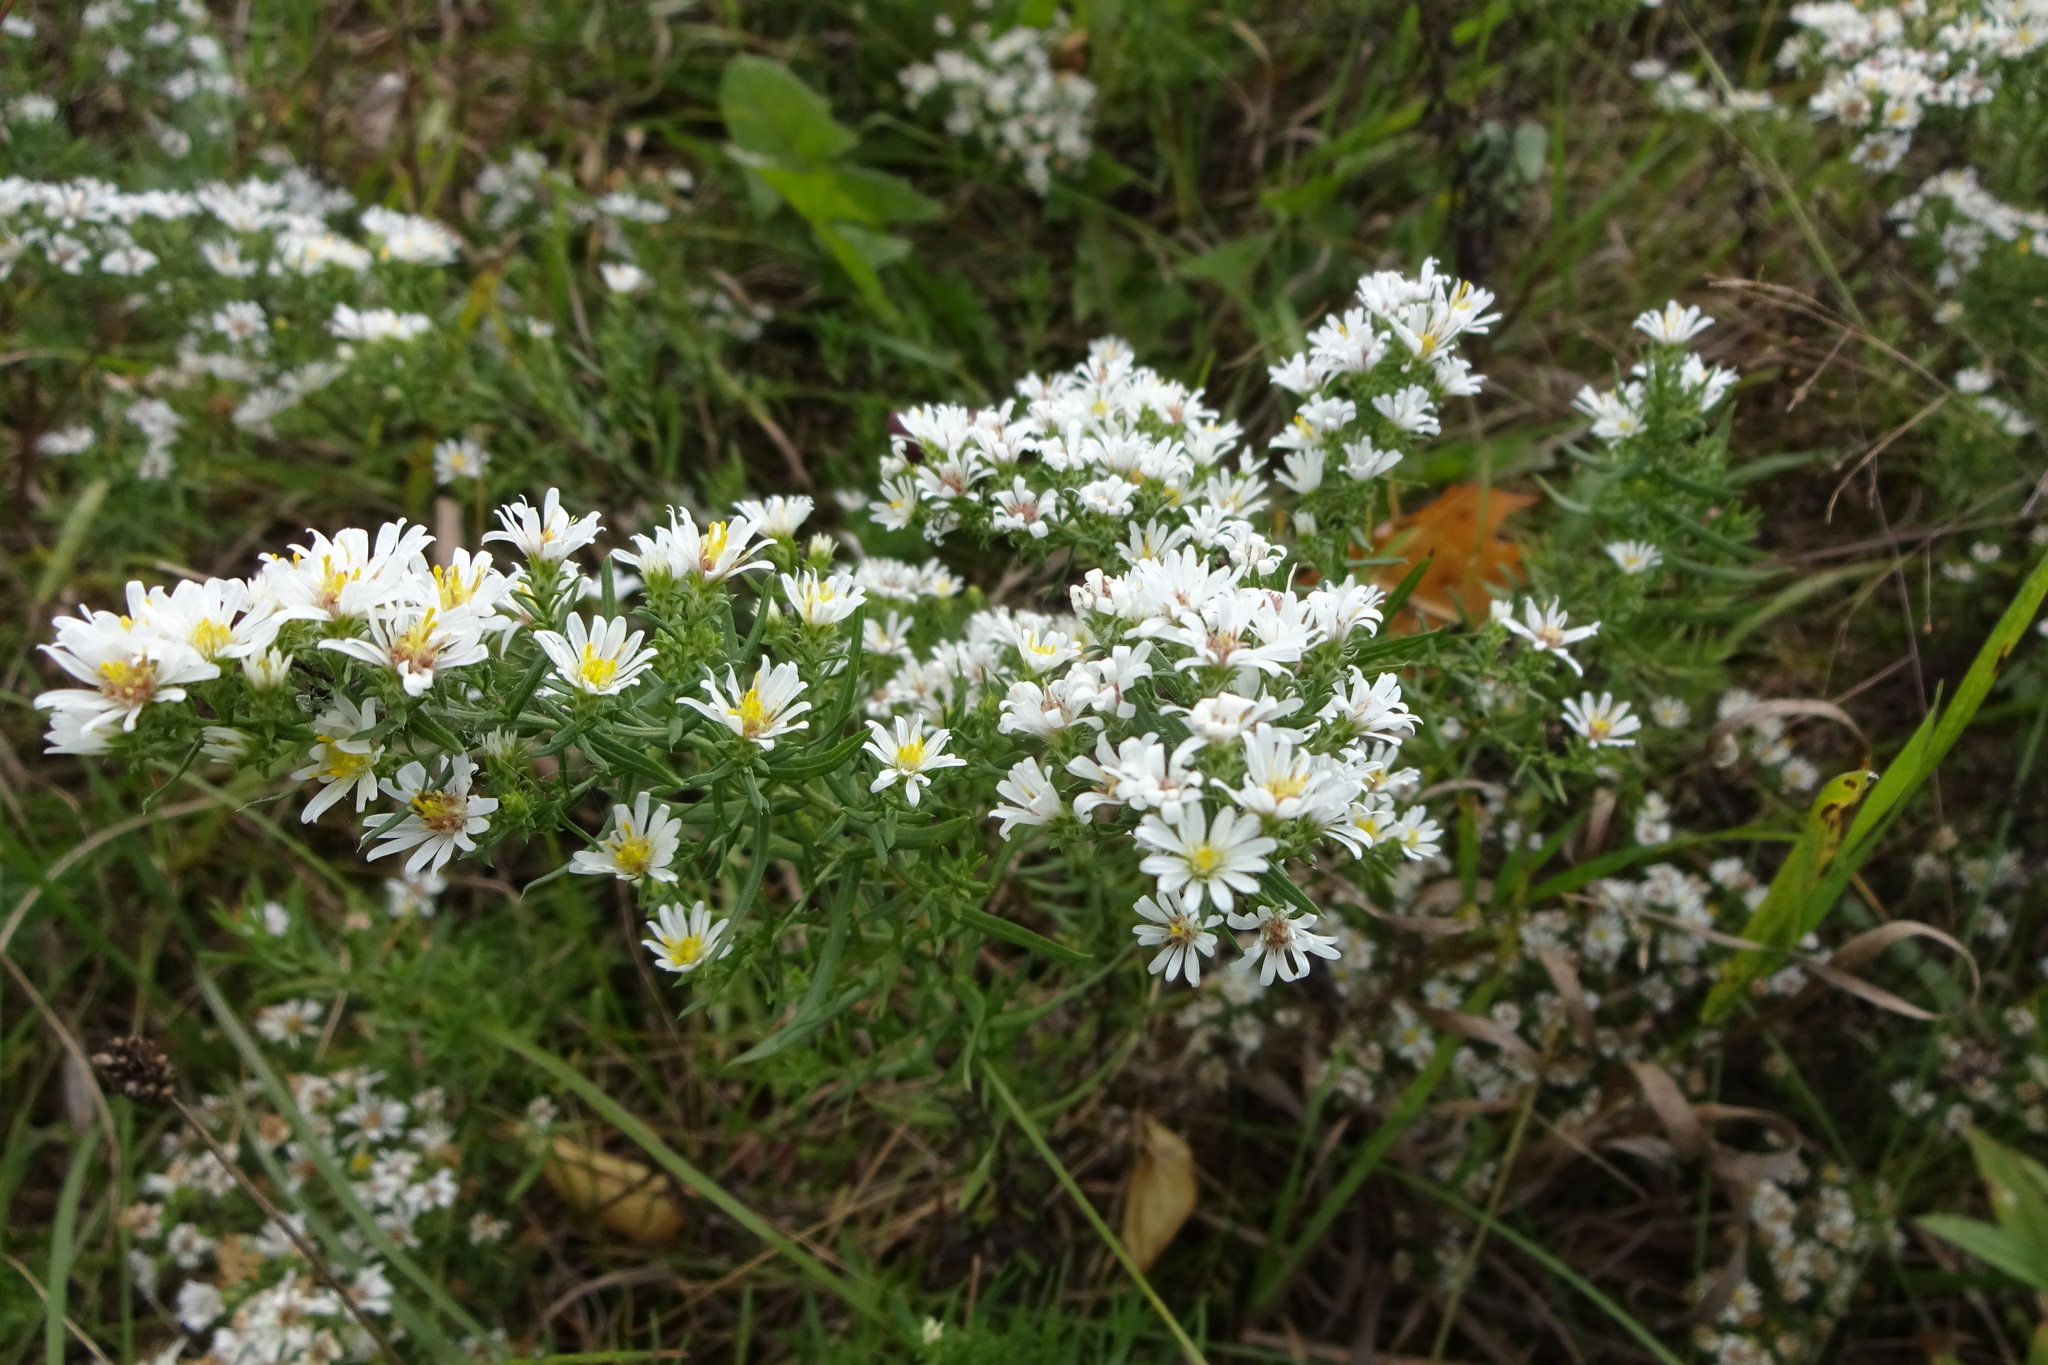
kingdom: Plantae
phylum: Tracheophyta
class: Magnoliopsida
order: Asterales
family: Asteraceae
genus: Symphyotrichum
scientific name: Symphyotrichum ericoides
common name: Heath aster
